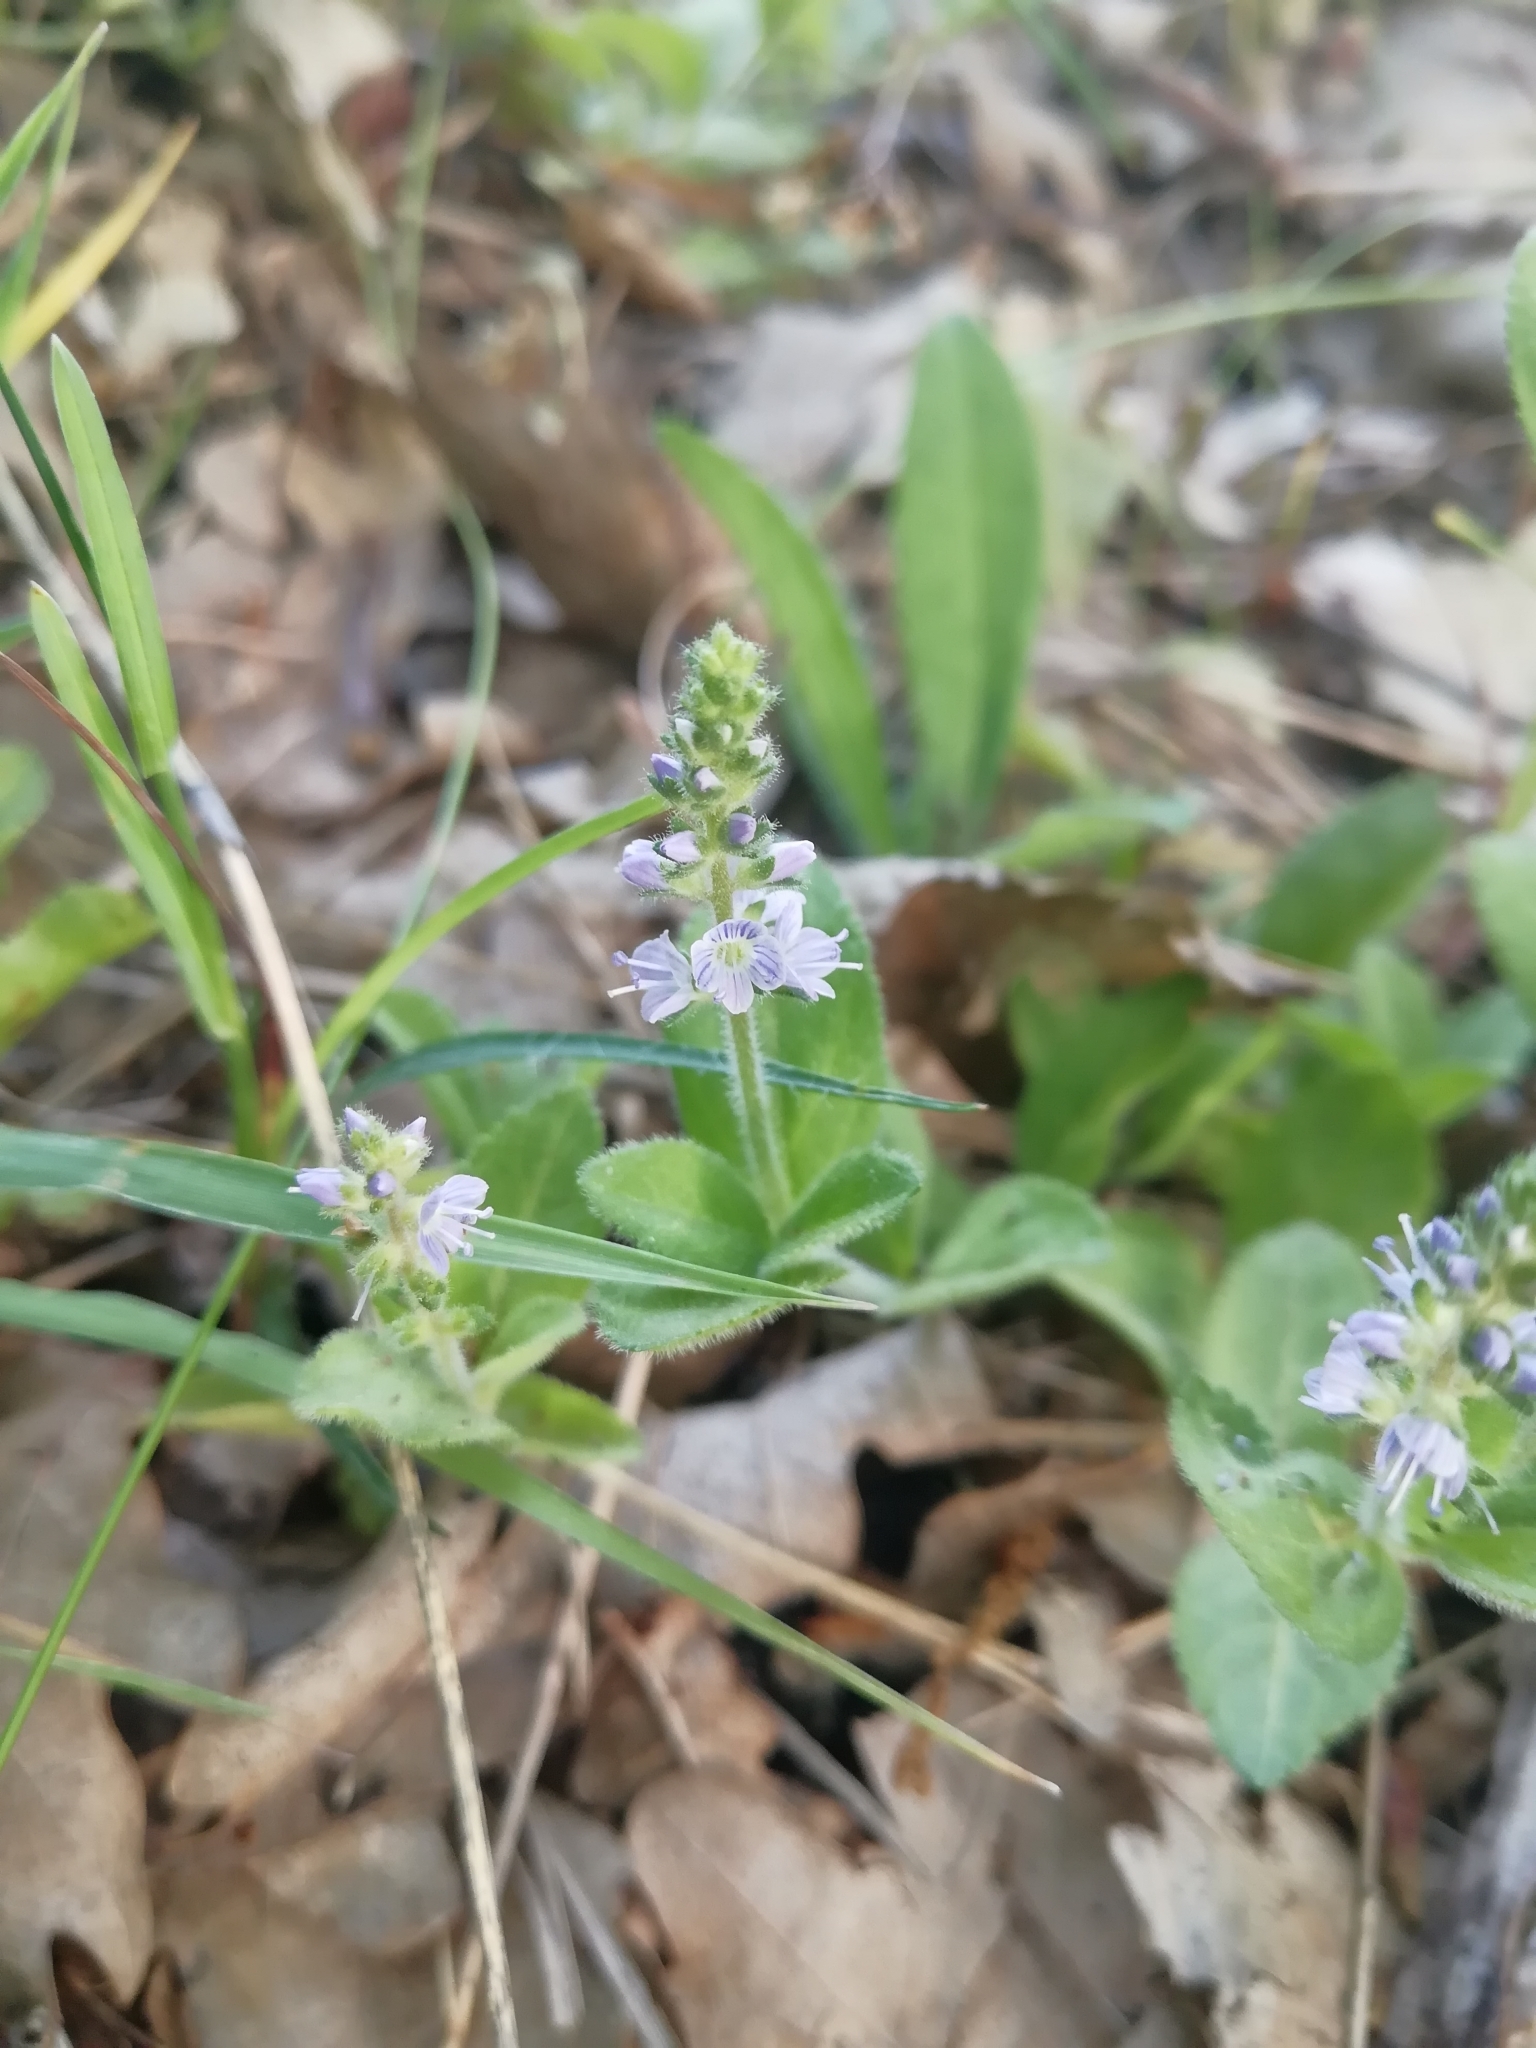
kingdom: Plantae
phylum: Tracheophyta
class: Magnoliopsida
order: Lamiales
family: Plantaginaceae
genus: Veronica
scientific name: Veronica officinalis
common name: Common speedwell
